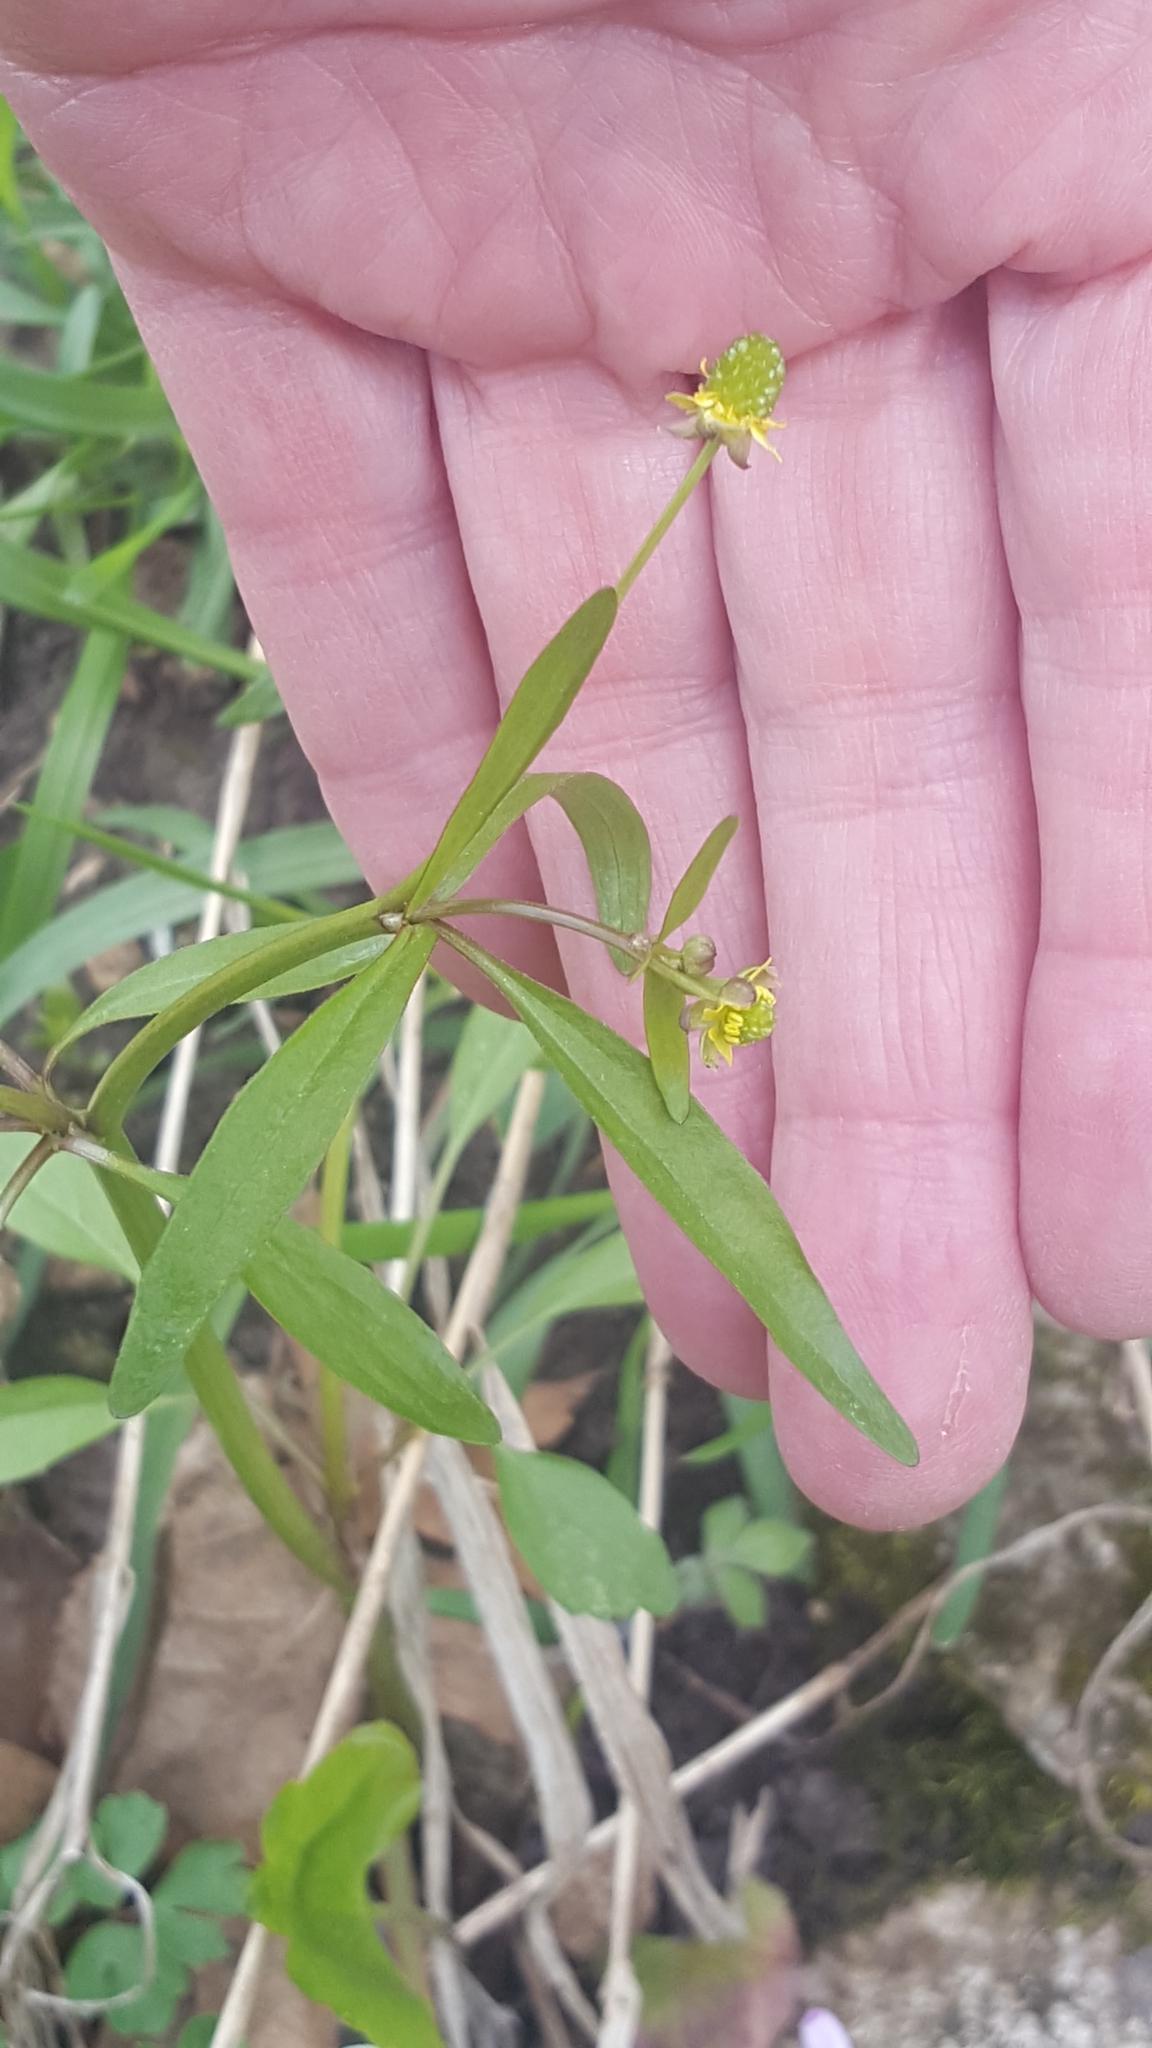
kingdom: Plantae
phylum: Tracheophyta
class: Magnoliopsida
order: Ranunculales
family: Ranunculaceae
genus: Ranunculus
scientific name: Ranunculus abortivus
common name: Early wood buttercup
